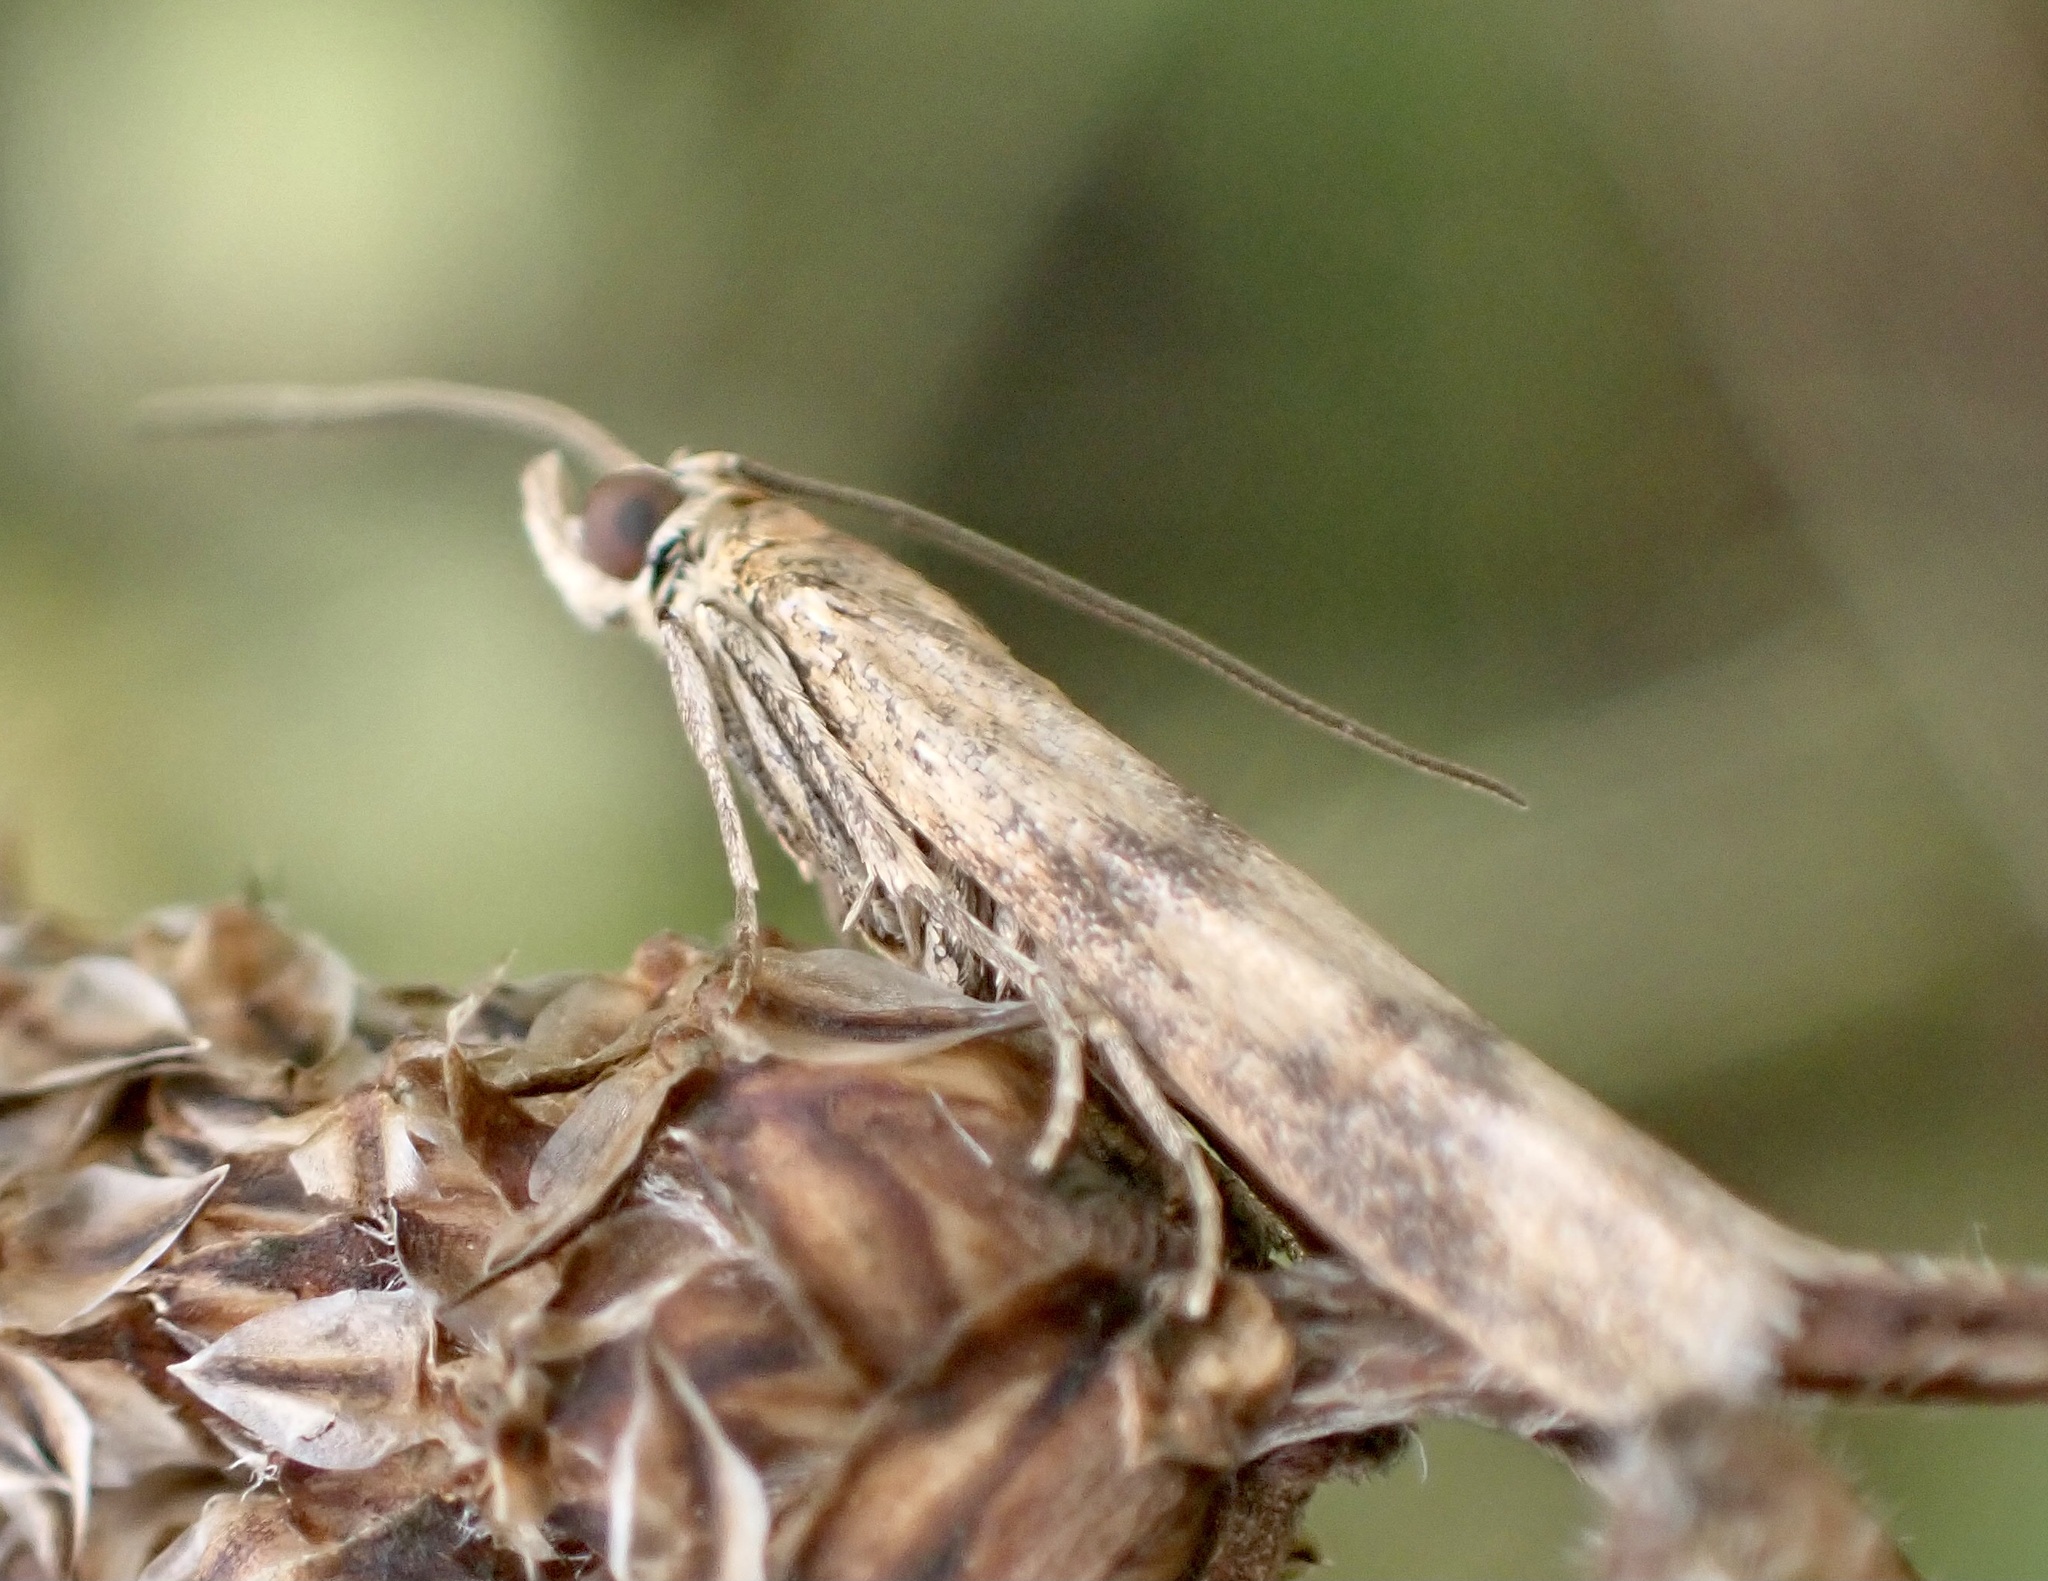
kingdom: Animalia
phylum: Arthropoda
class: Insecta
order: Lepidoptera
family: Pyralidae
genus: Homoeosoma
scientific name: Homoeosoma sinuella
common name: Twin-barred knot-horn
